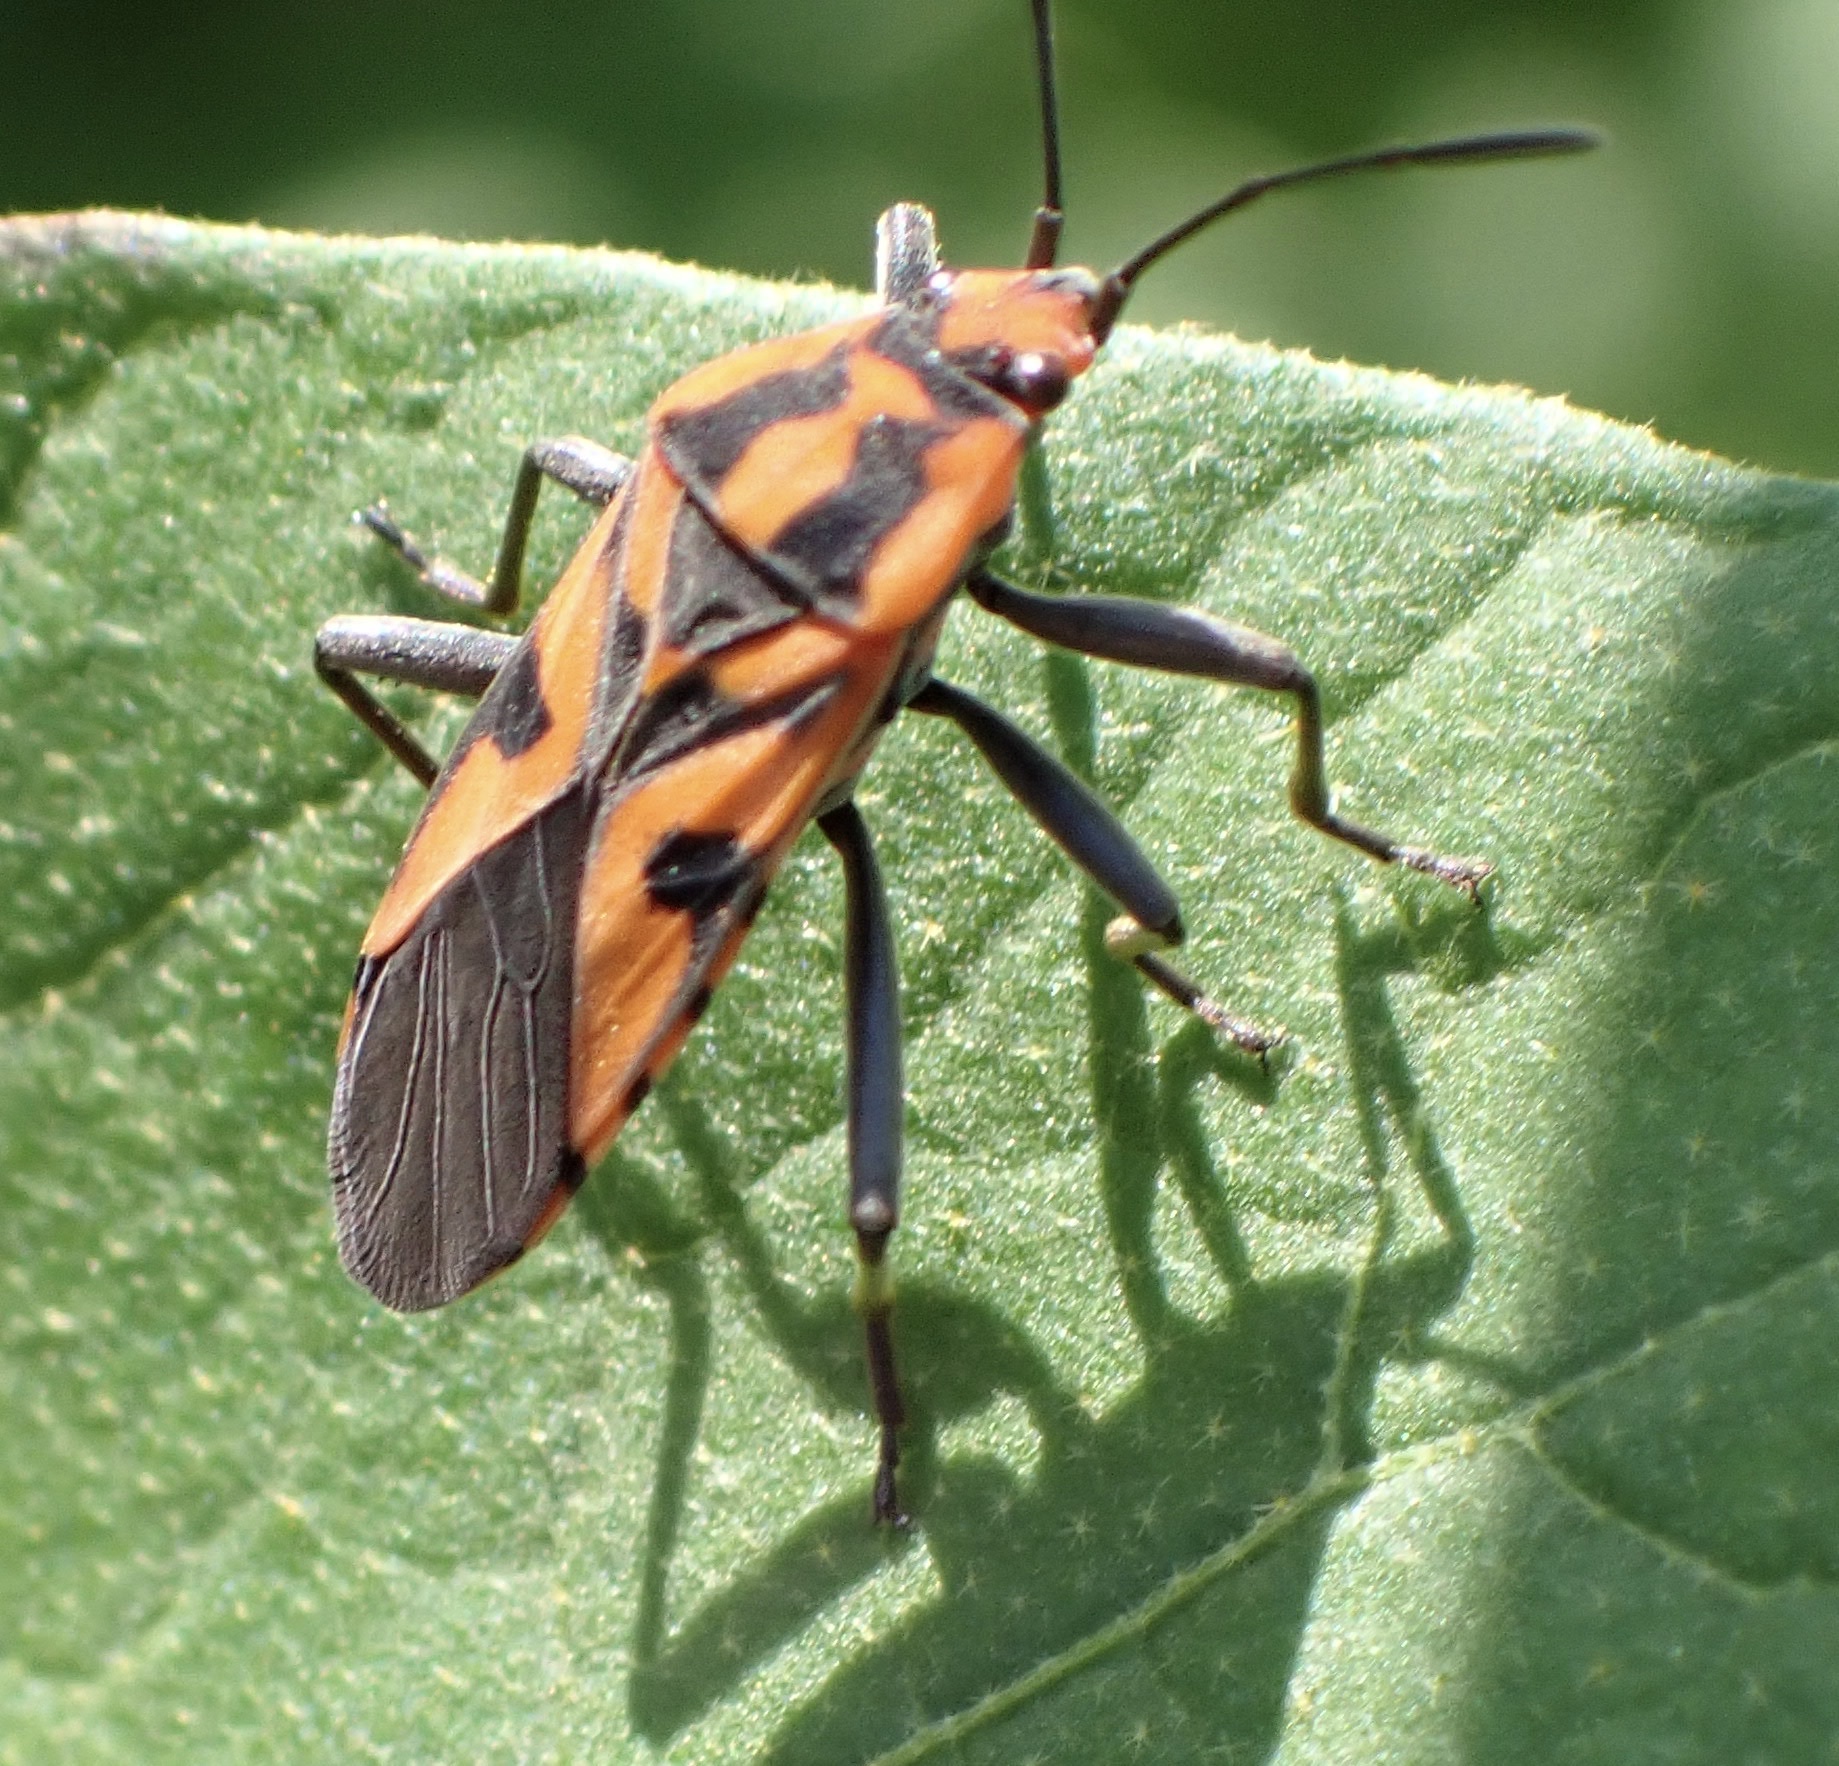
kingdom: Animalia
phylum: Arthropoda
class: Insecta
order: Hemiptera
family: Lygaeidae
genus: Spilostethus
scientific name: Spilostethus hospes
